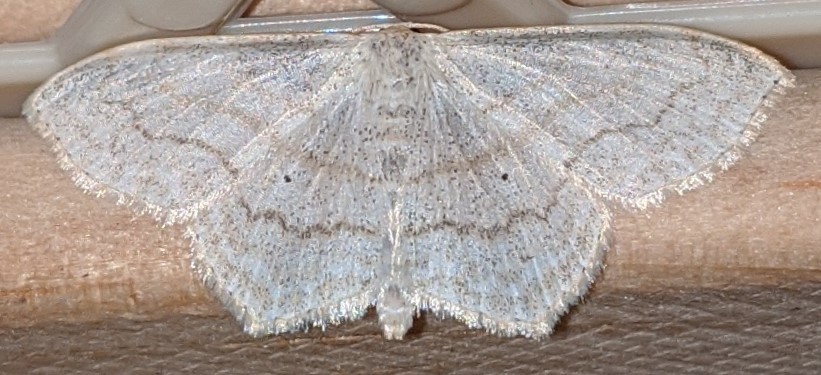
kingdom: Animalia
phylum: Arthropoda
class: Insecta
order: Lepidoptera
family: Geometridae
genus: Scopula
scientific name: Scopula limboundata
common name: Large lace border
